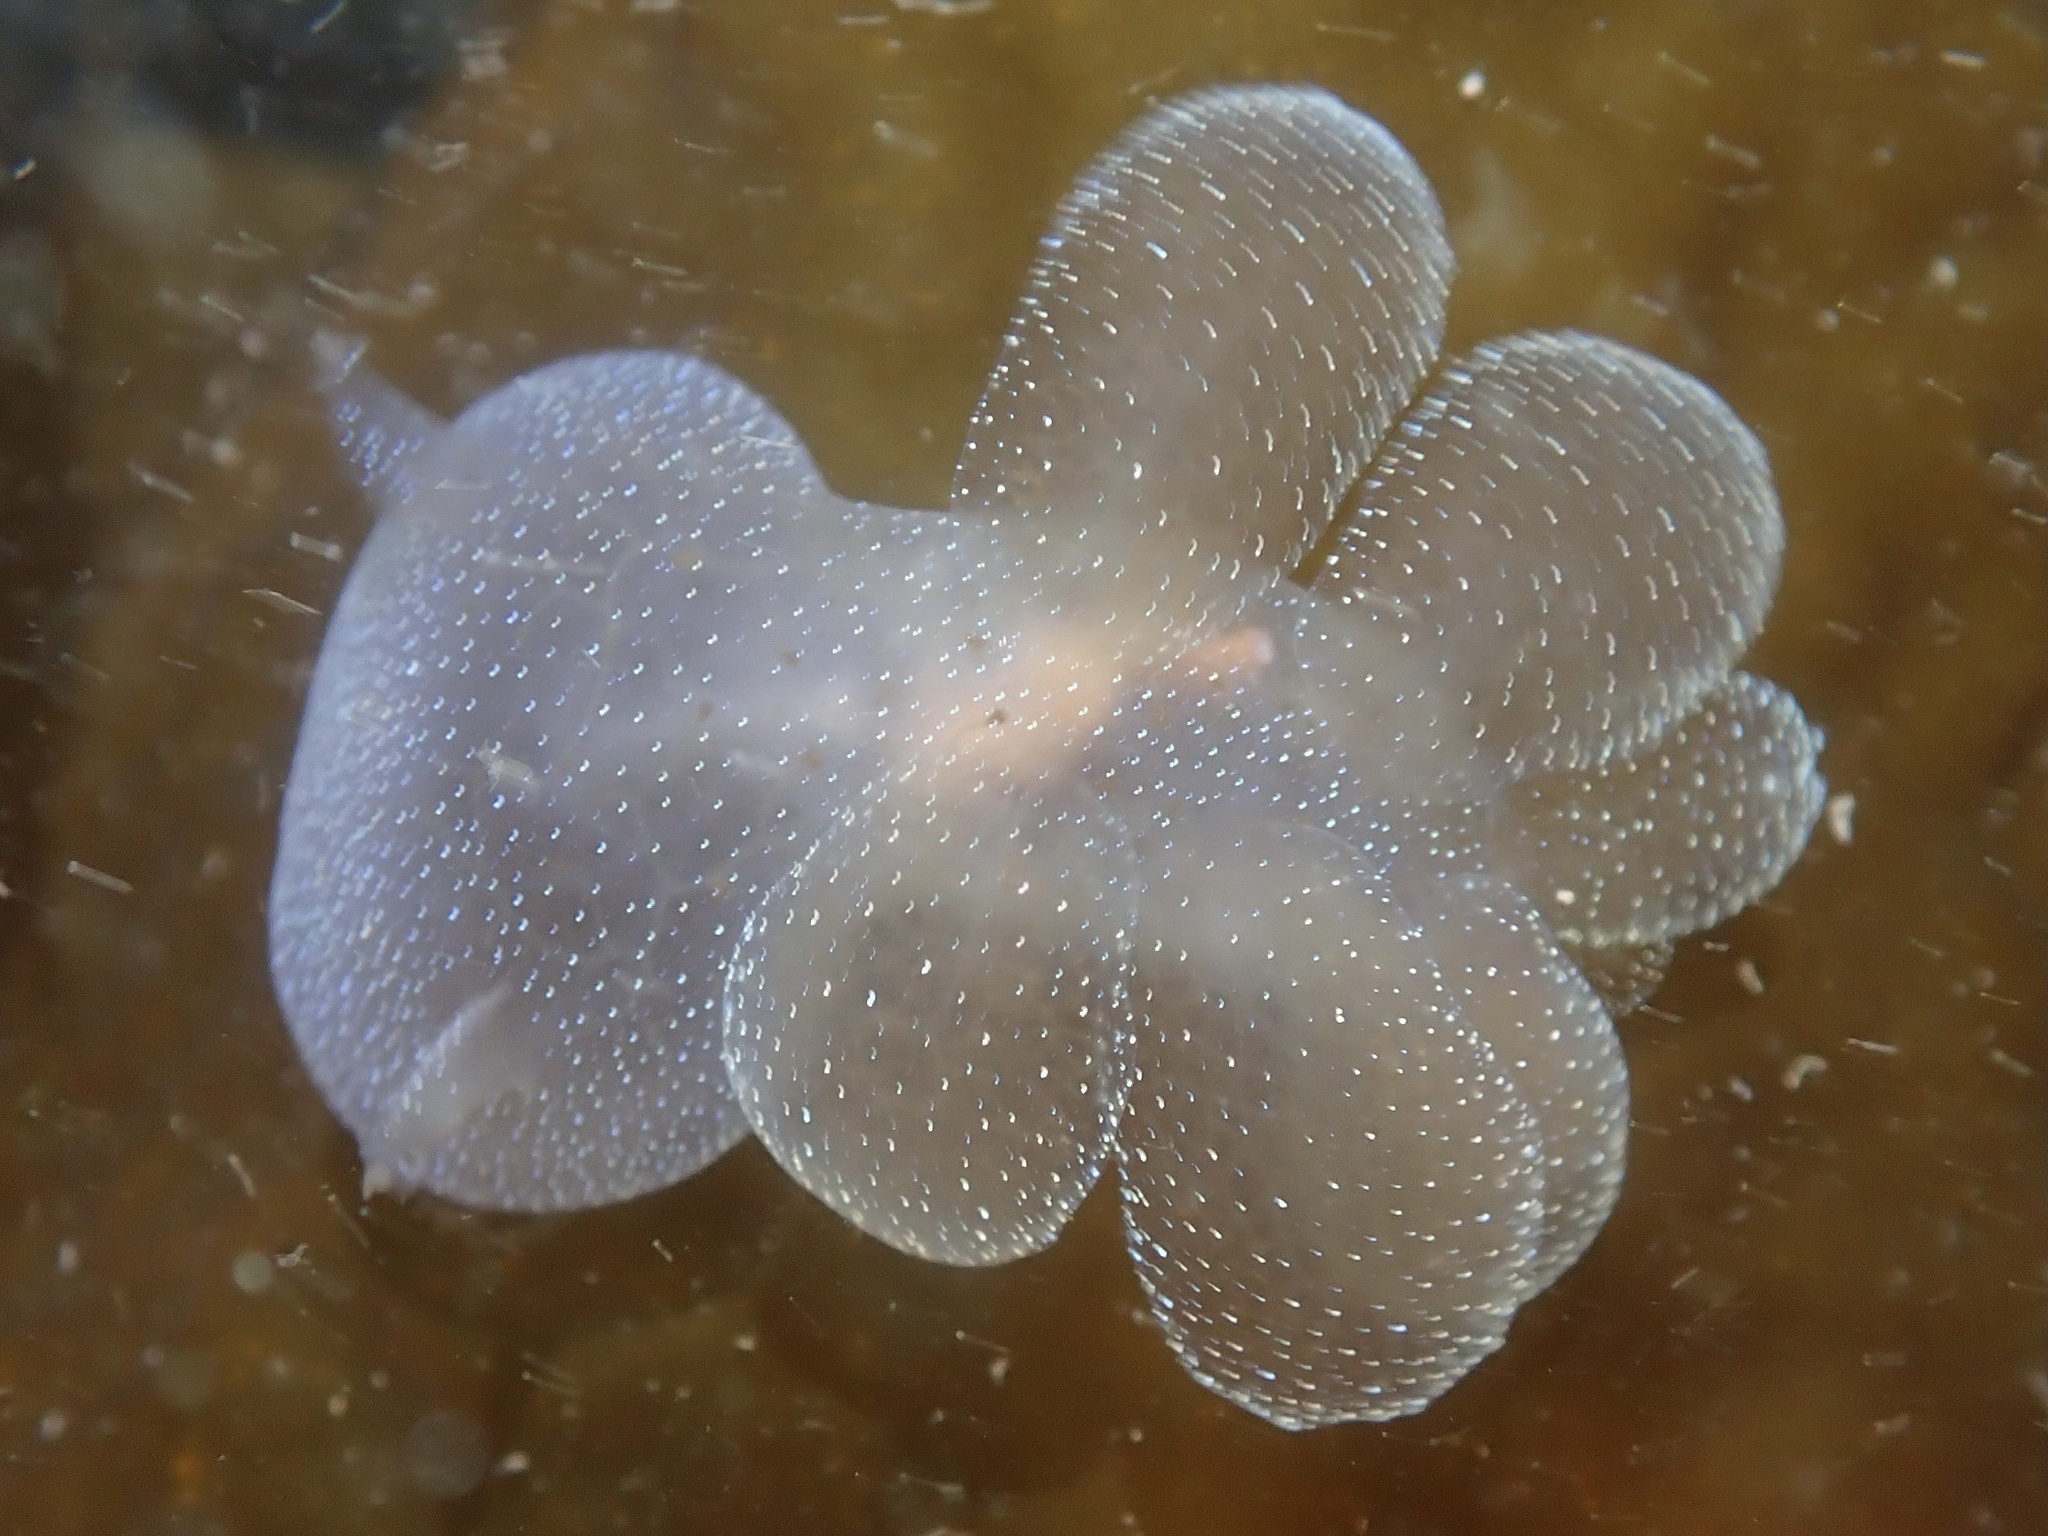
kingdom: Animalia
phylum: Mollusca
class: Gastropoda
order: Nudibranchia
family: Tethydidae
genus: Melibe
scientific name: Melibe leonina
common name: Lion nudibranch
